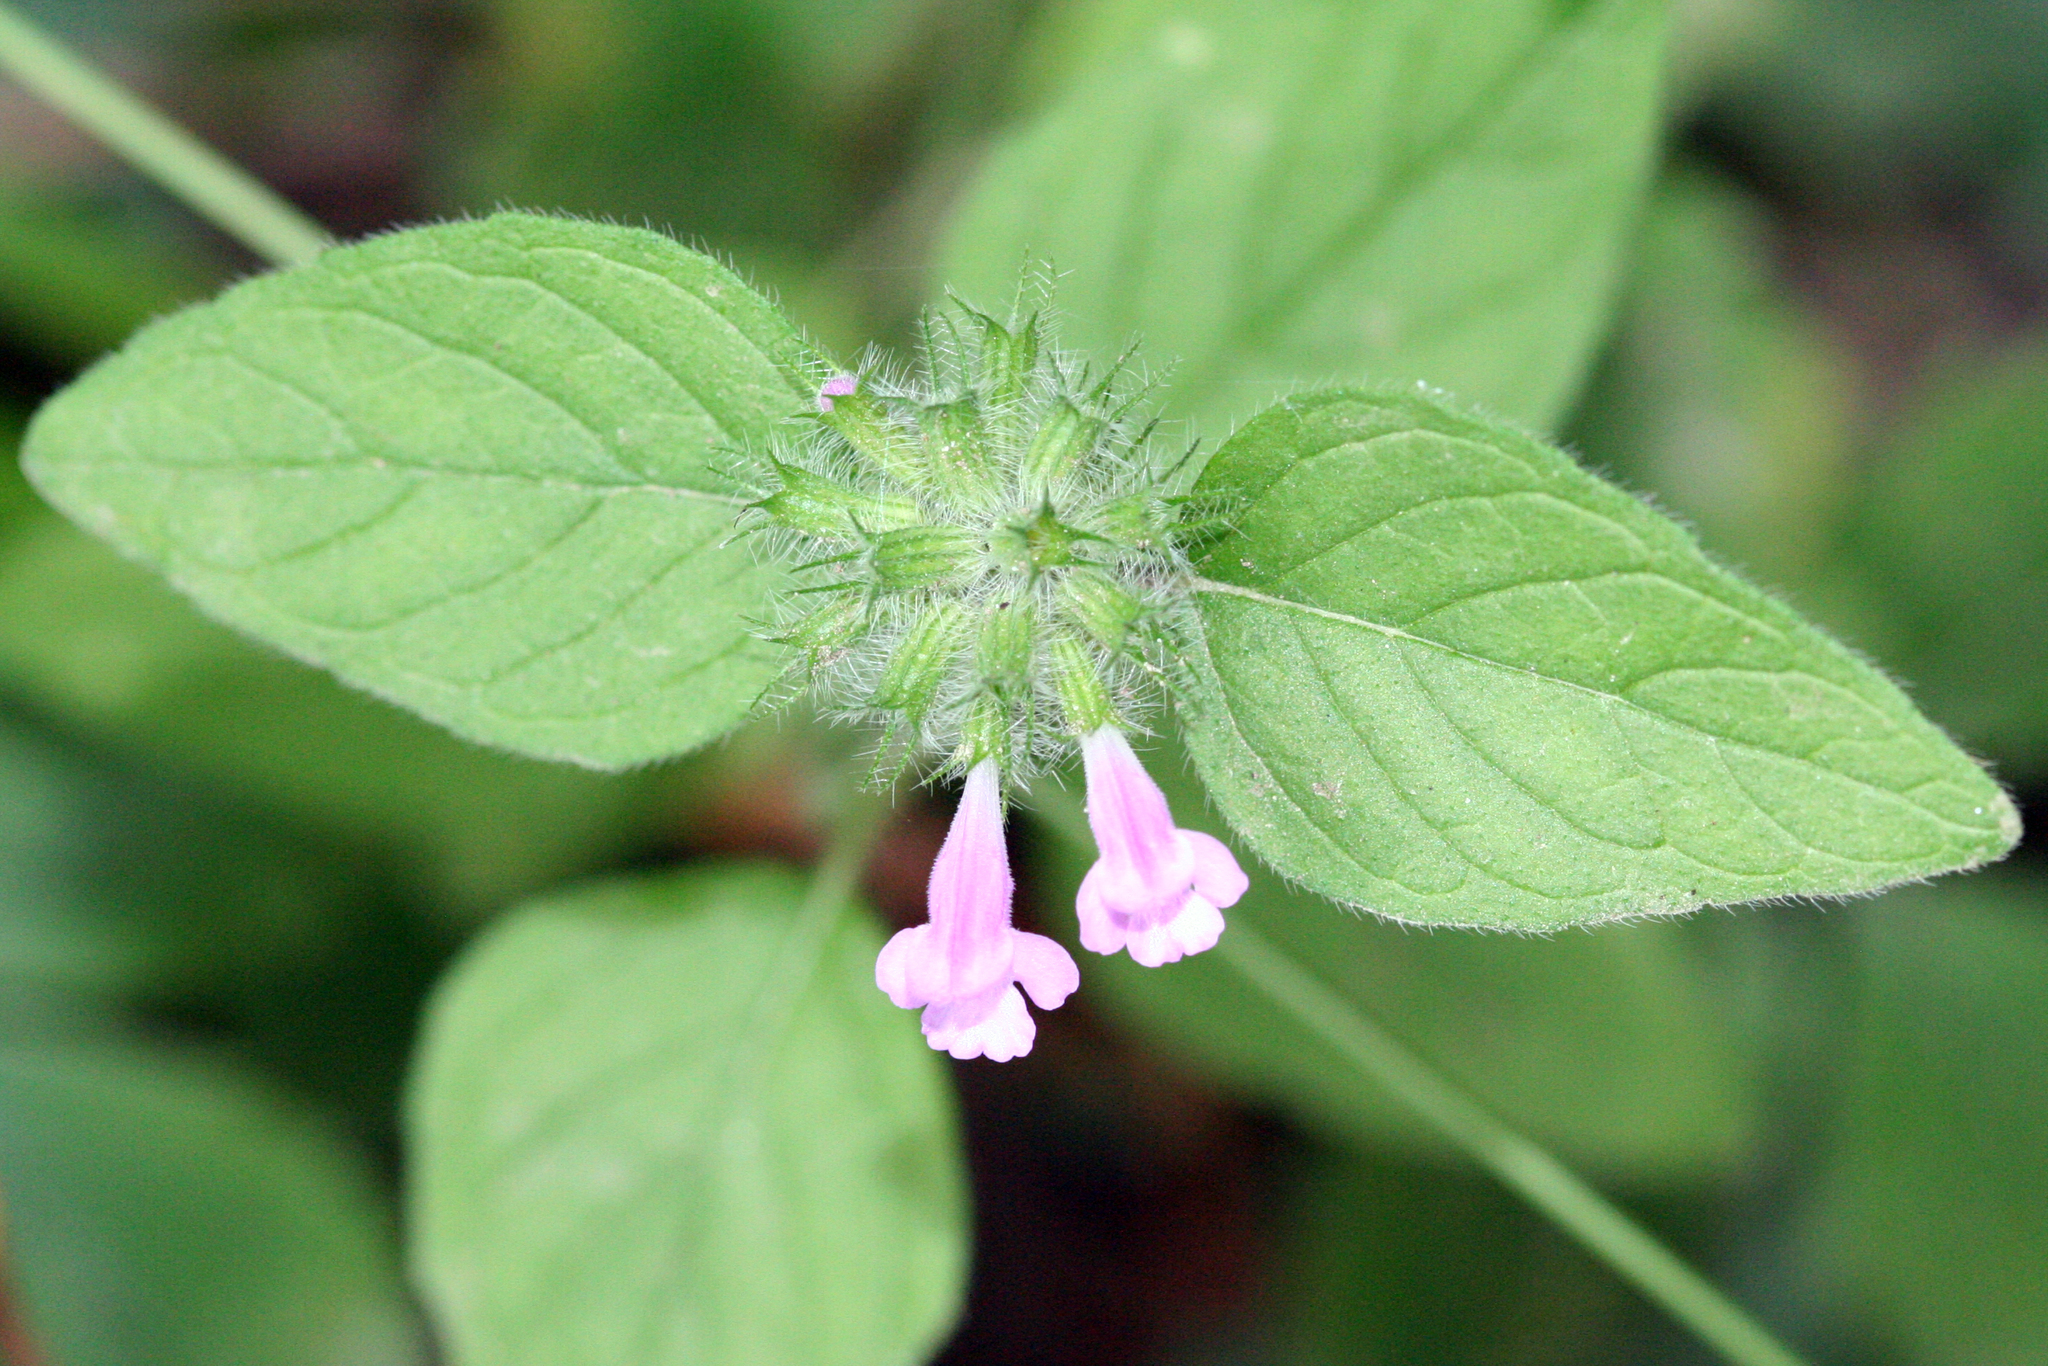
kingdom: Plantae
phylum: Tracheophyta
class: Magnoliopsida
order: Lamiales
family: Lamiaceae
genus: Clinopodium
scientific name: Clinopodium vulgare
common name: Wild basil
